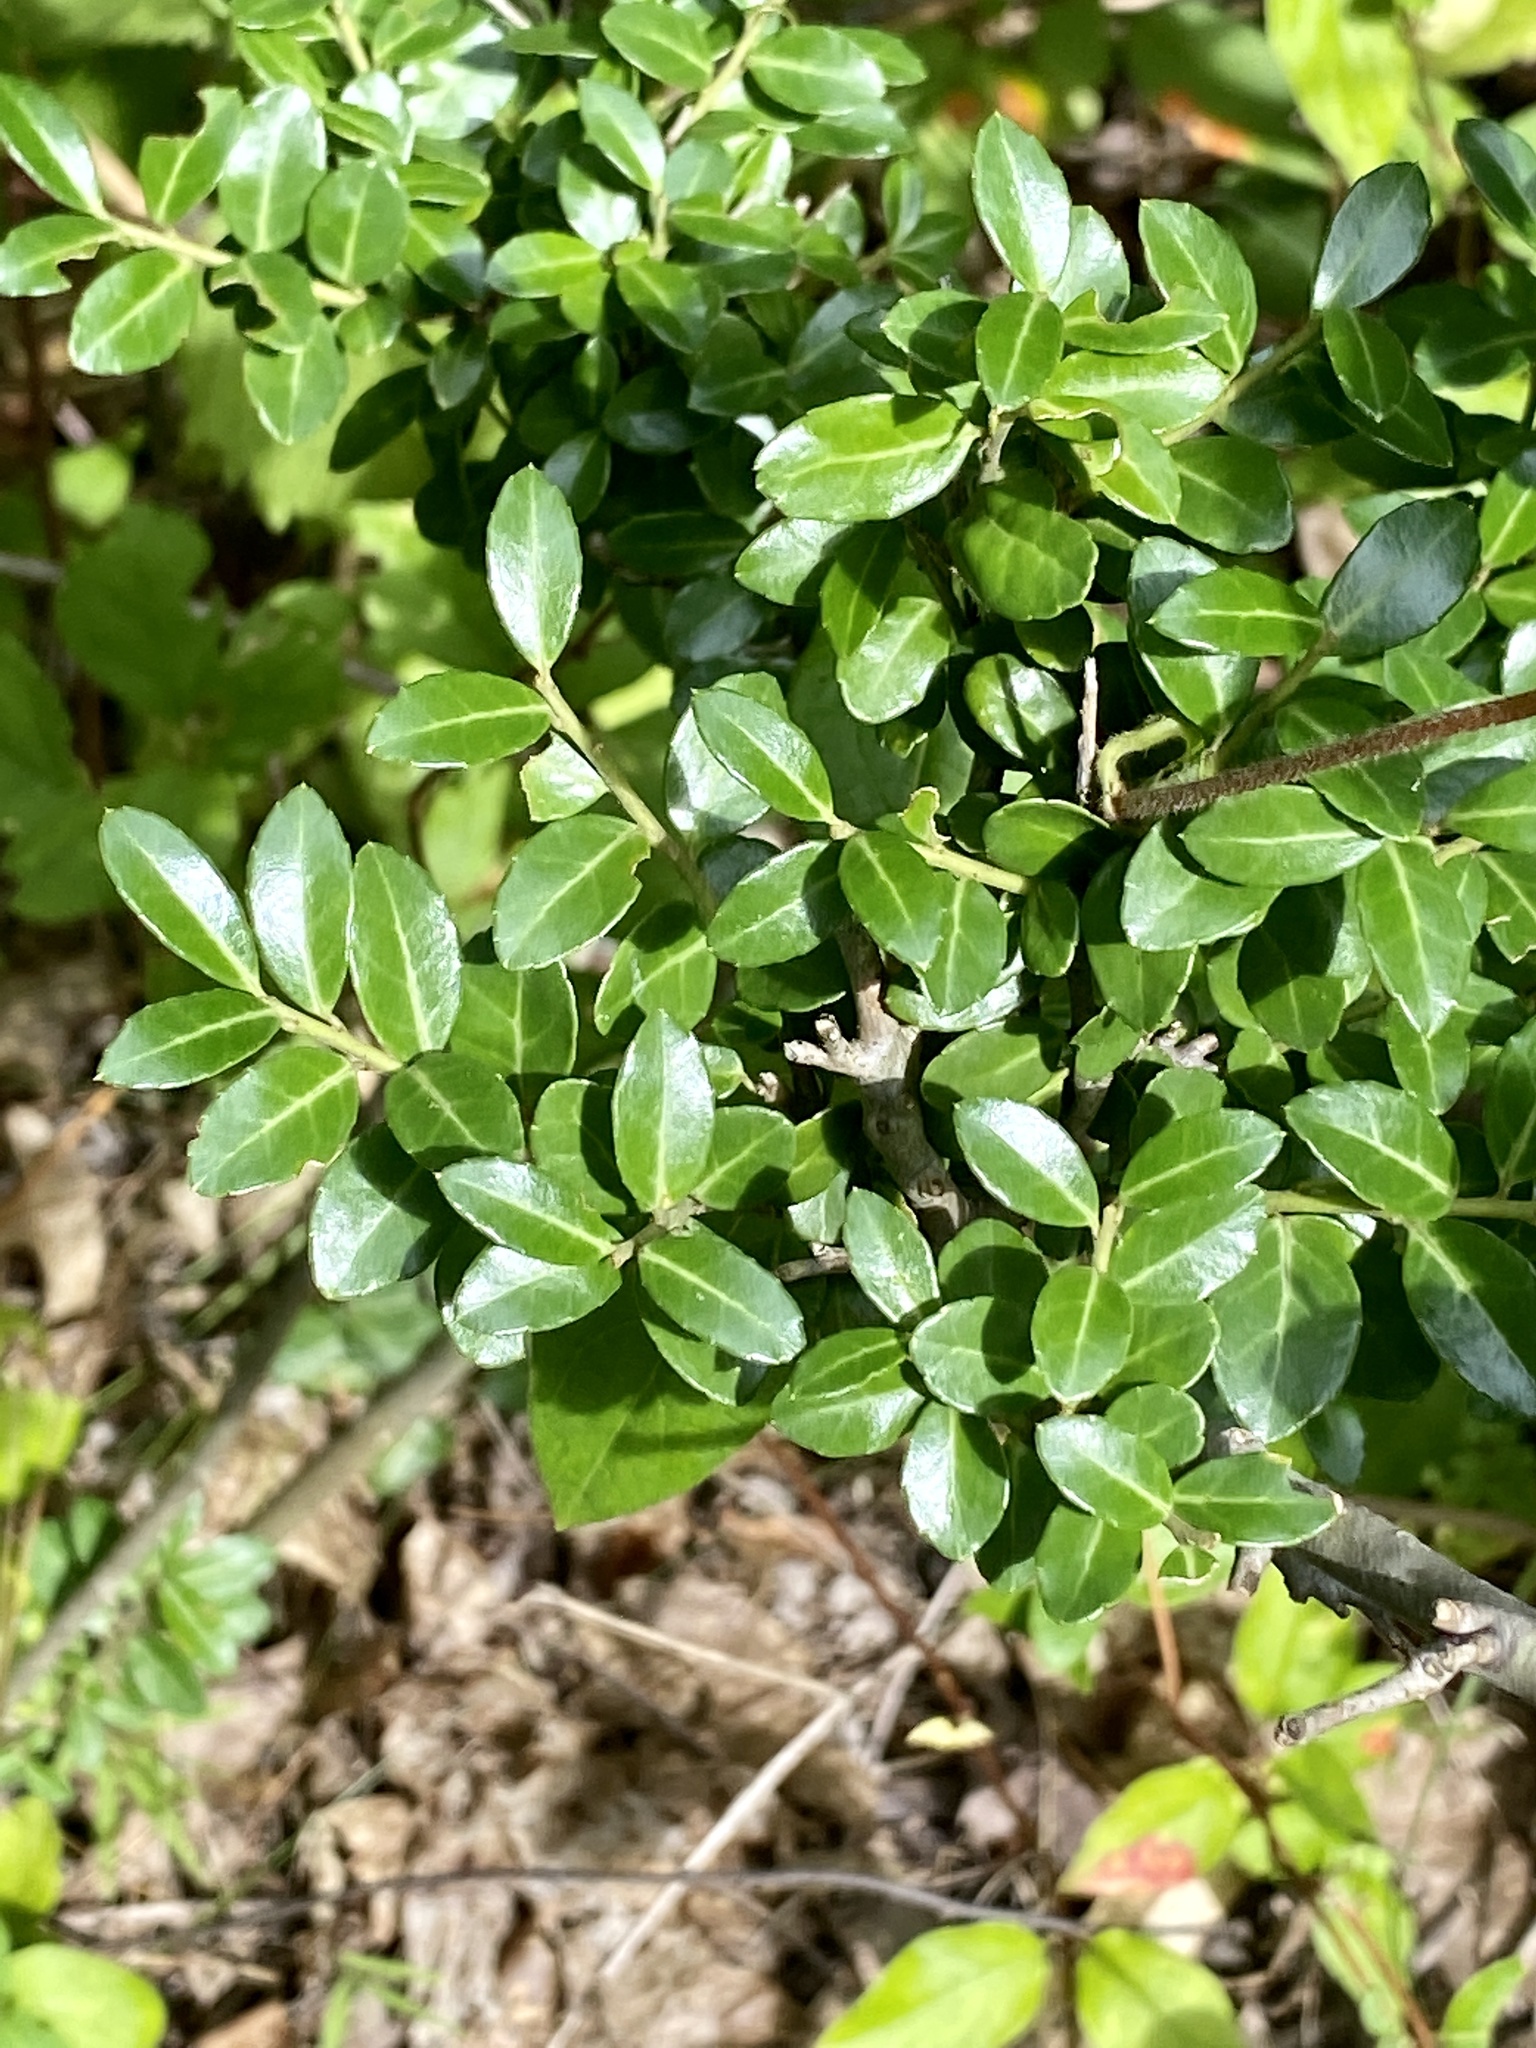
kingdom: Plantae
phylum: Tracheophyta
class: Magnoliopsida
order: Aquifoliales
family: Aquifoliaceae
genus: Ilex
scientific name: Ilex crenata
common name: Japanese holly
